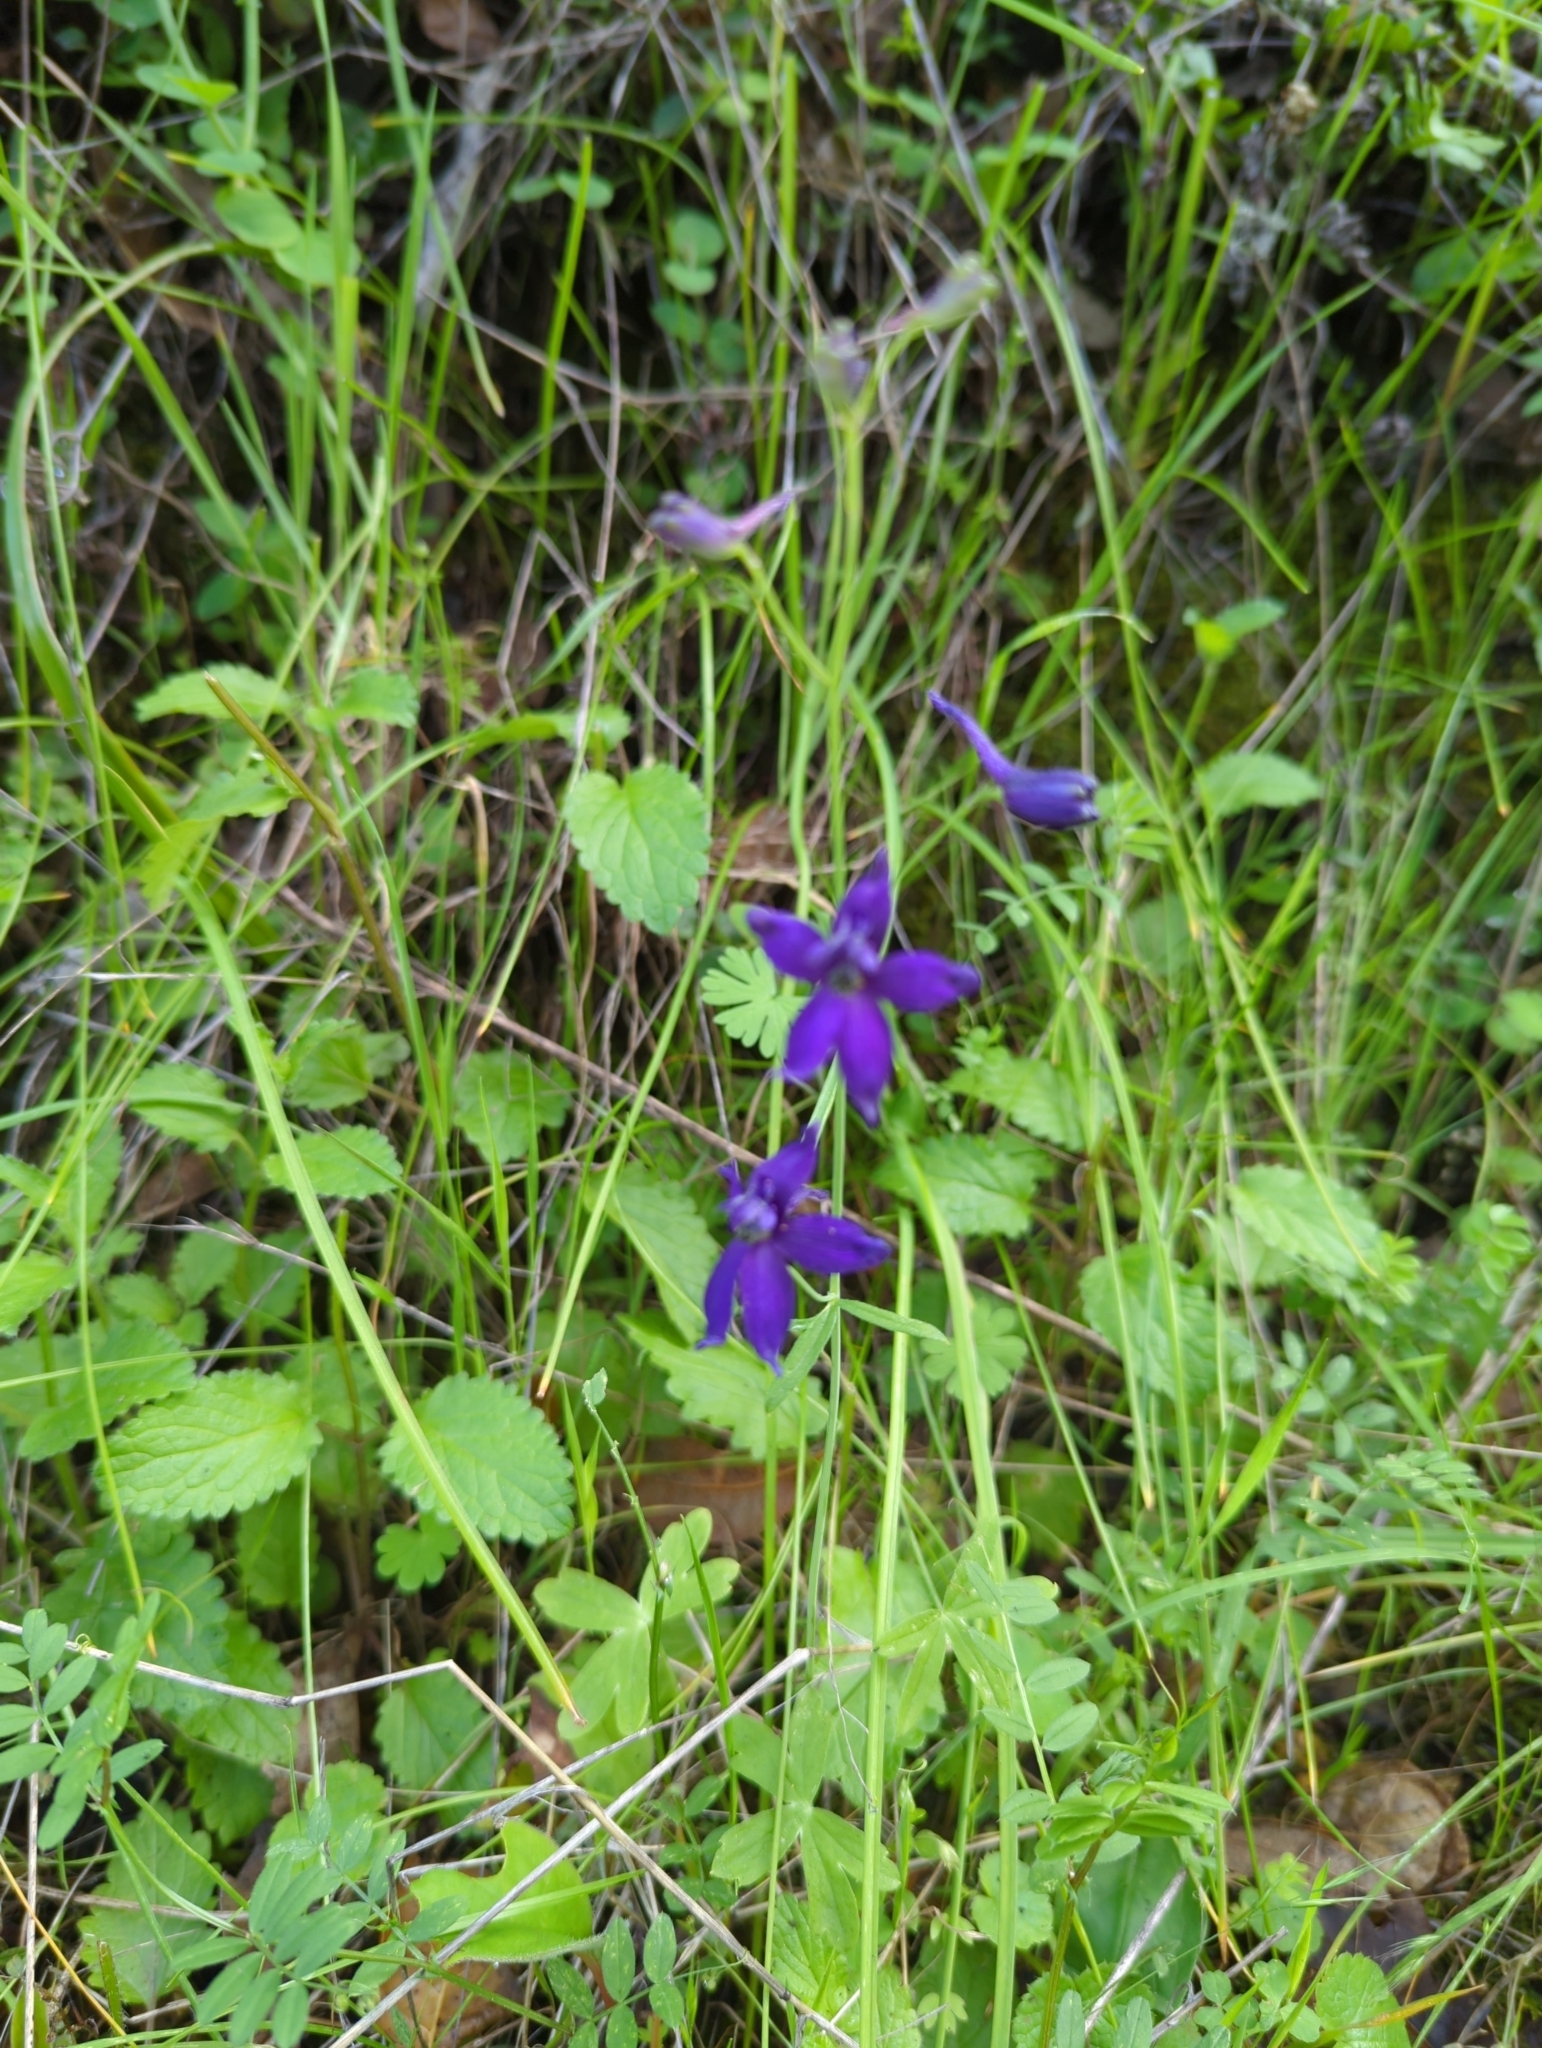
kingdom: Plantae
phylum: Tracheophyta
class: Magnoliopsida
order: Ranunculales
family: Ranunculaceae
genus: Delphinium
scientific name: Delphinium patens
